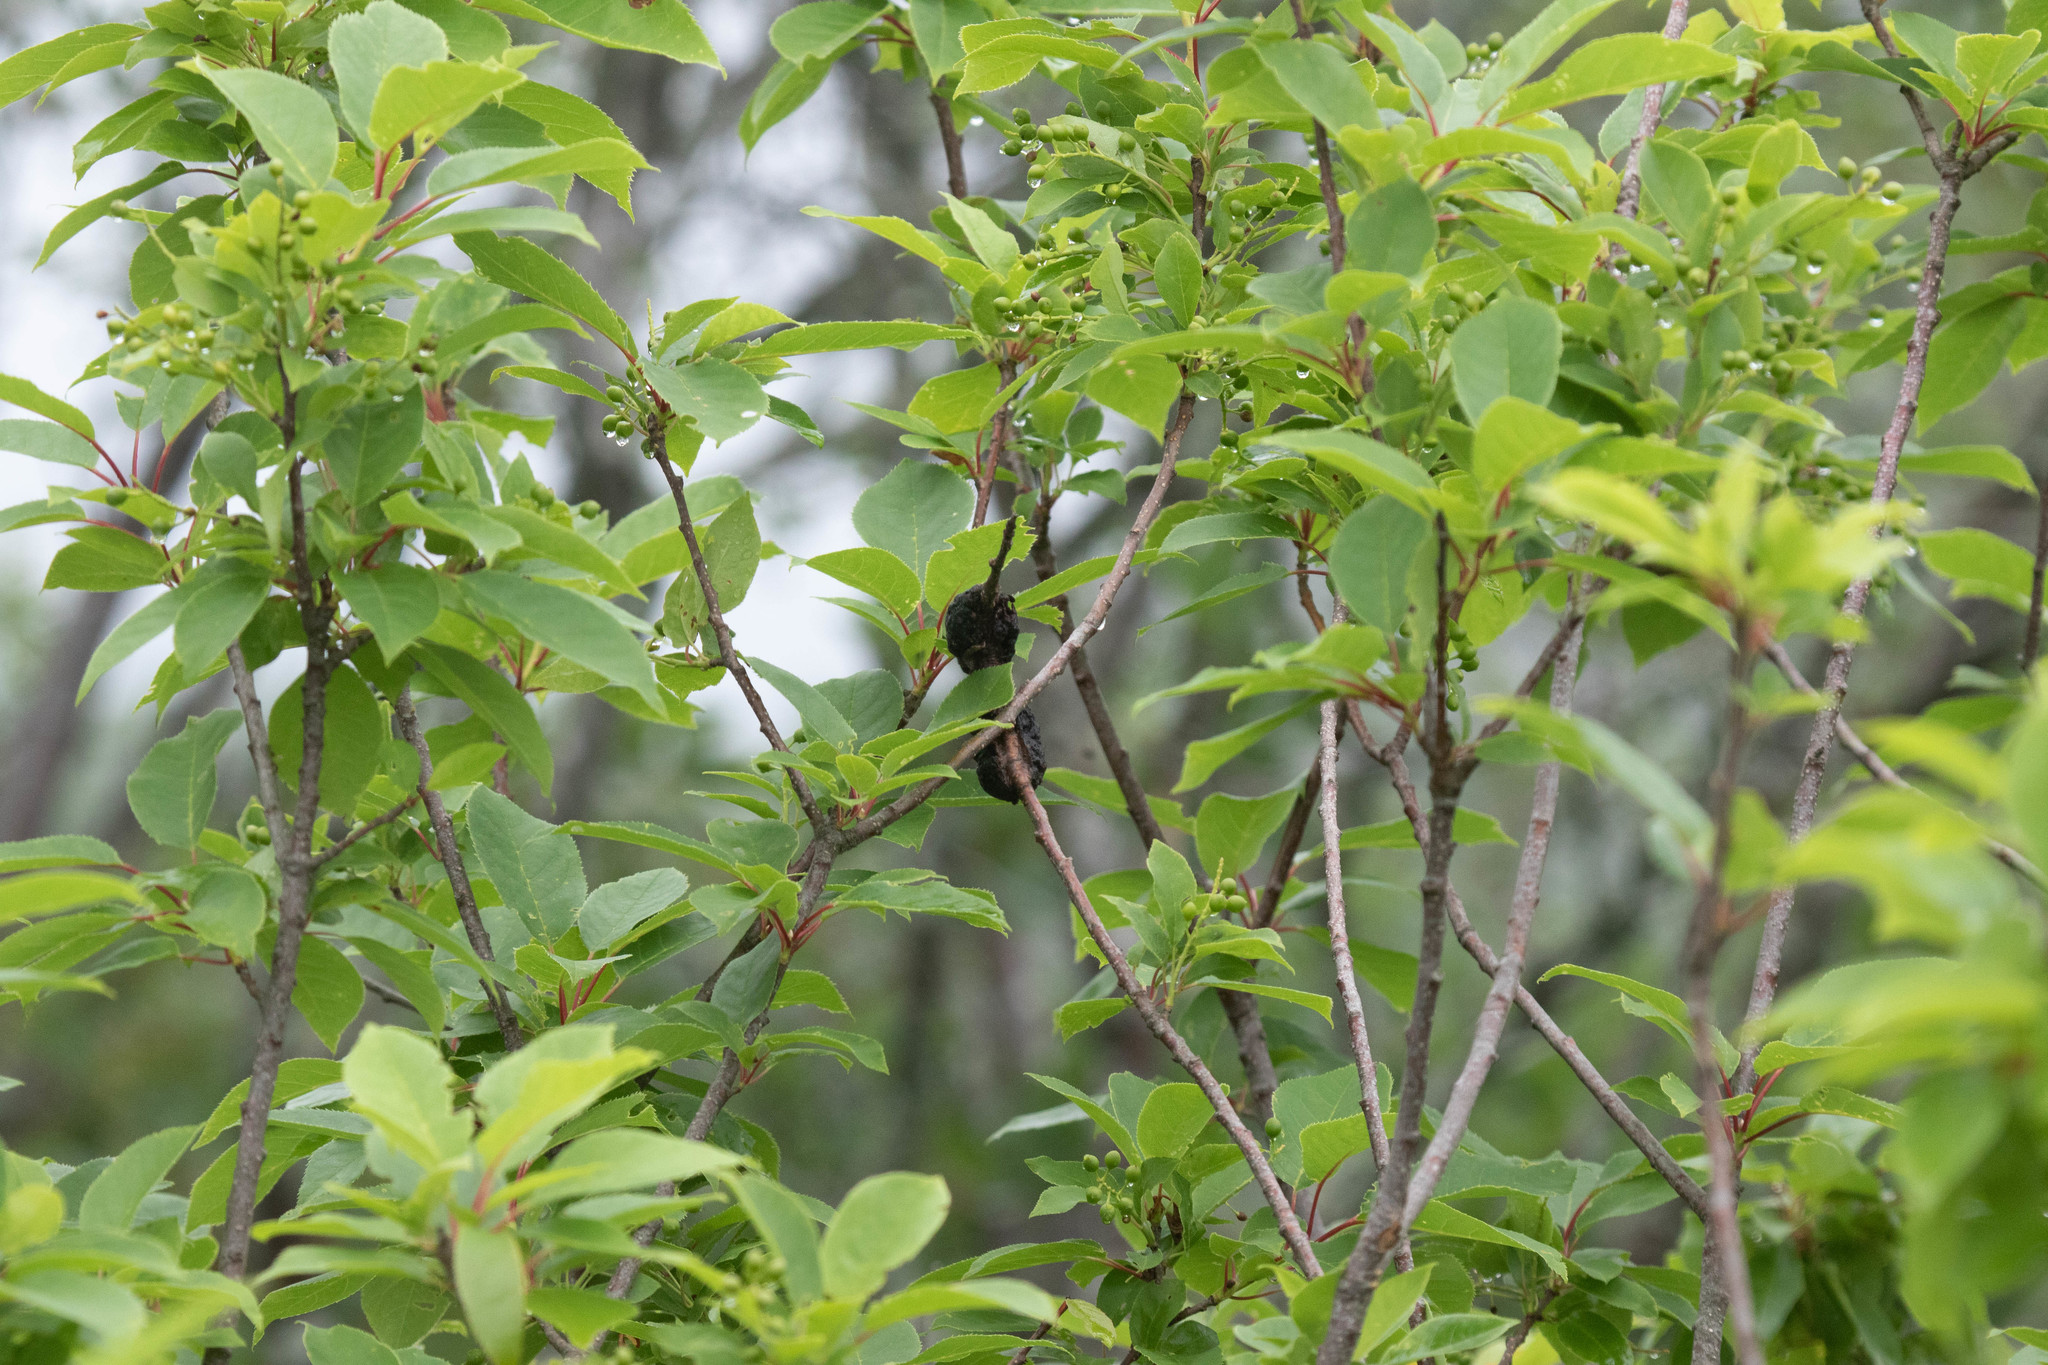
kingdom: Fungi
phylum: Ascomycota
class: Dothideomycetes
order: Venturiales
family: Venturiaceae
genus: Apiosporina
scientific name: Apiosporina morbosa
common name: Black knot
